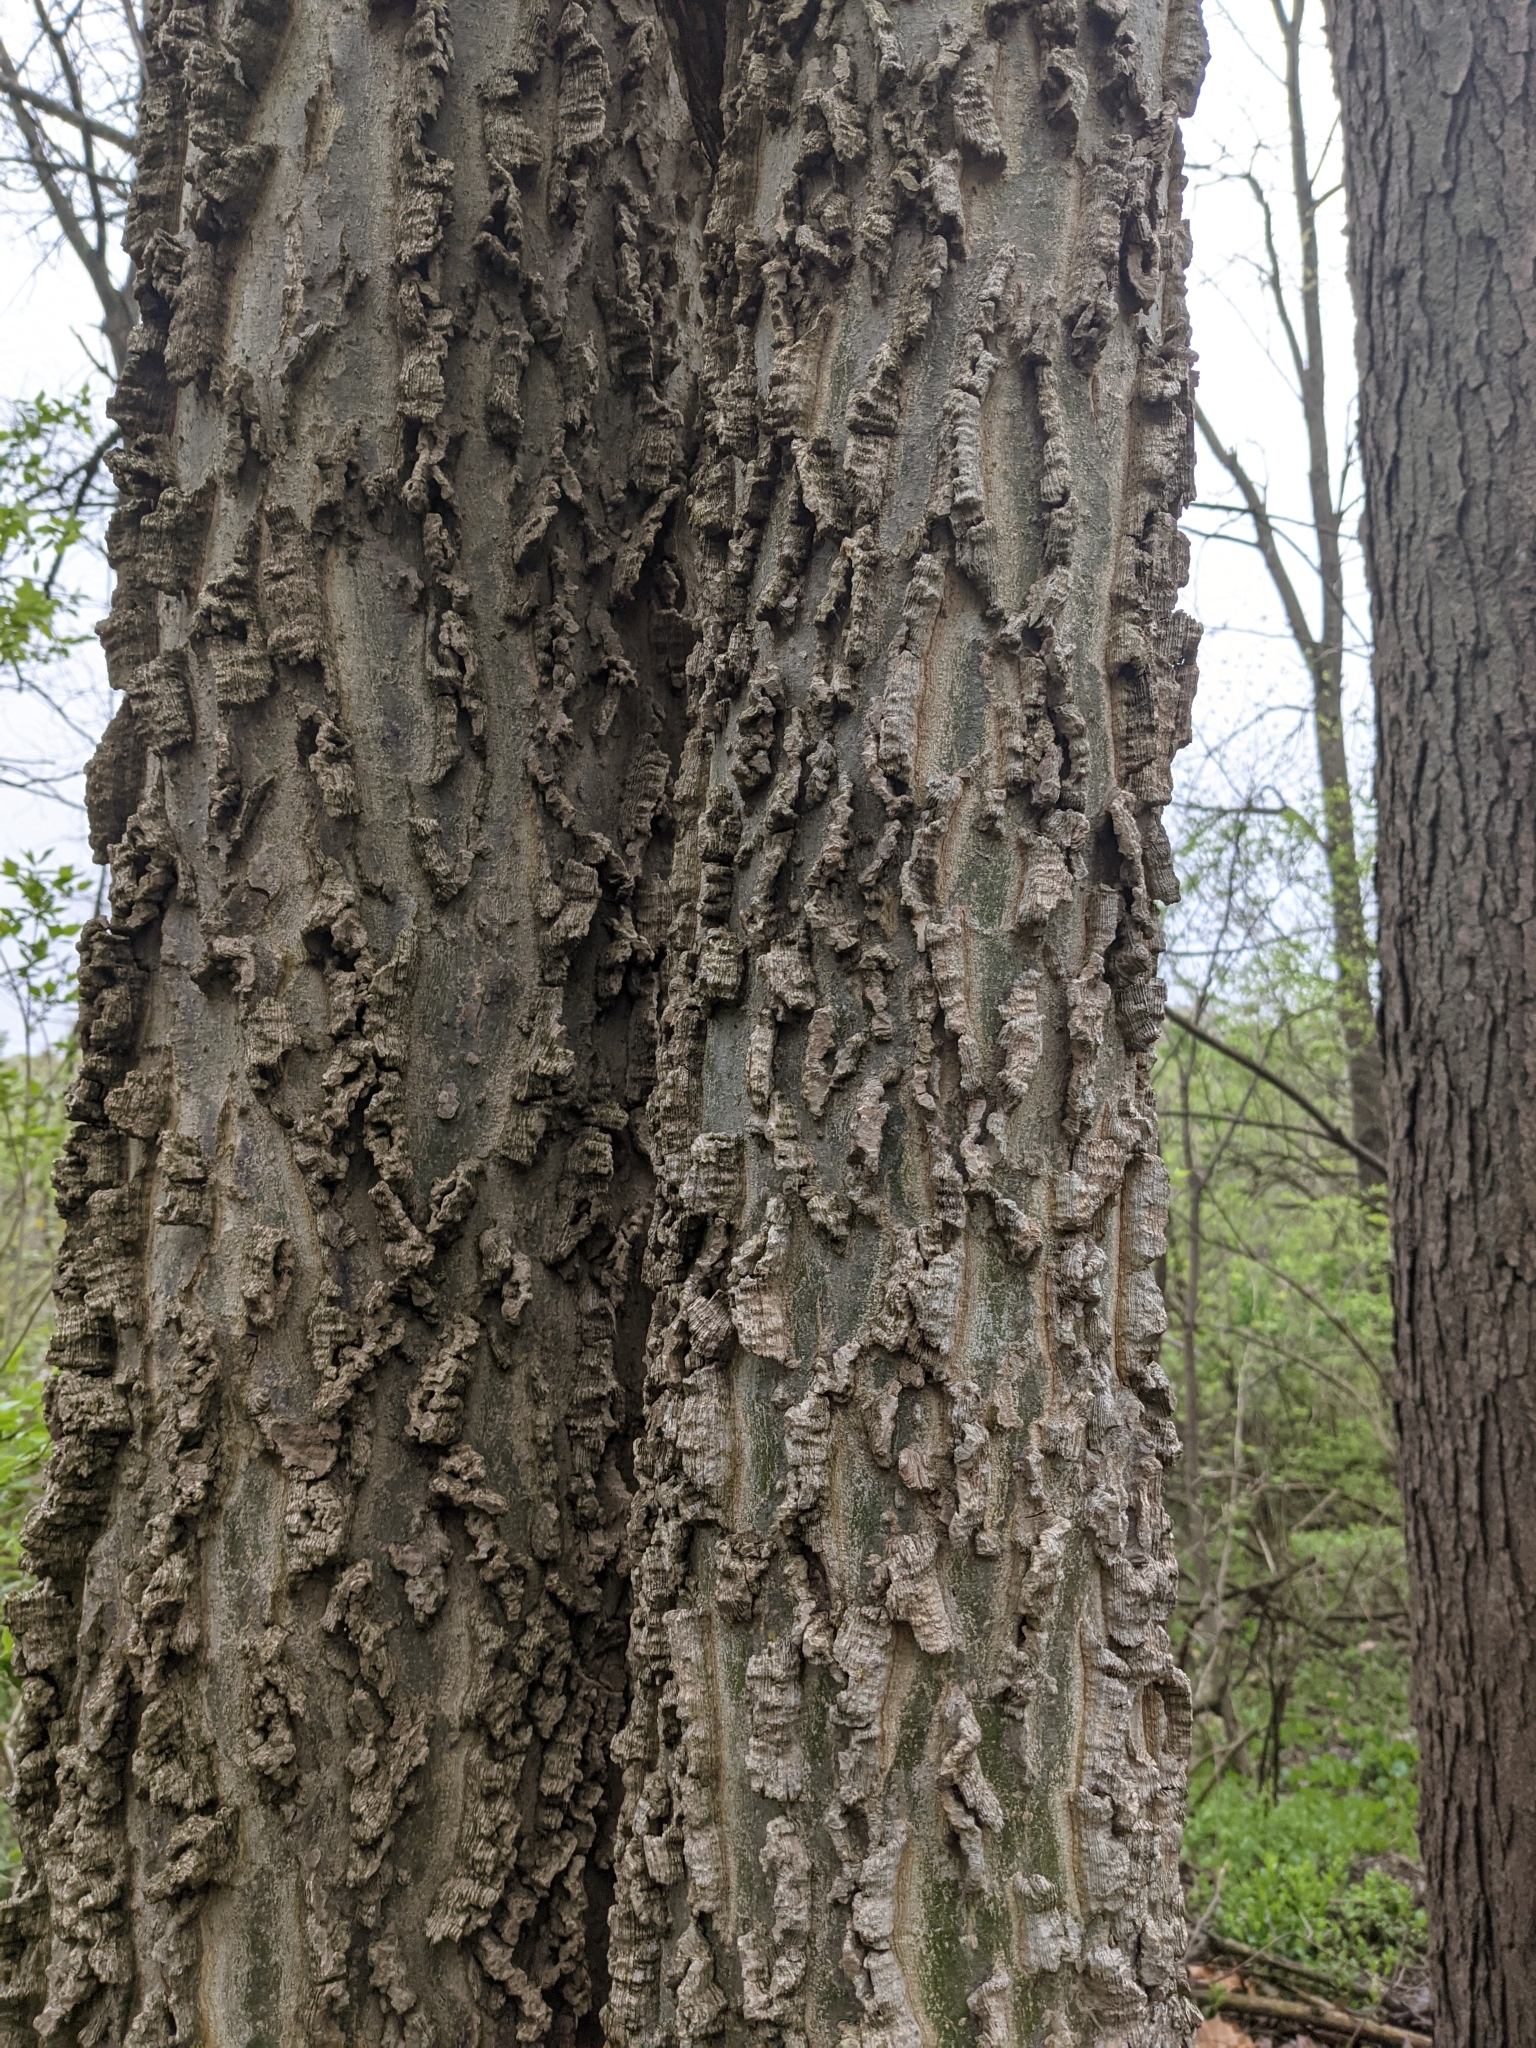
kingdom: Plantae
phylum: Tracheophyta
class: Magnoliopsida
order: Rosales
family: Cannabaceae
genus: Celtis
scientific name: Celtis occidentalis
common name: Common hackberry
